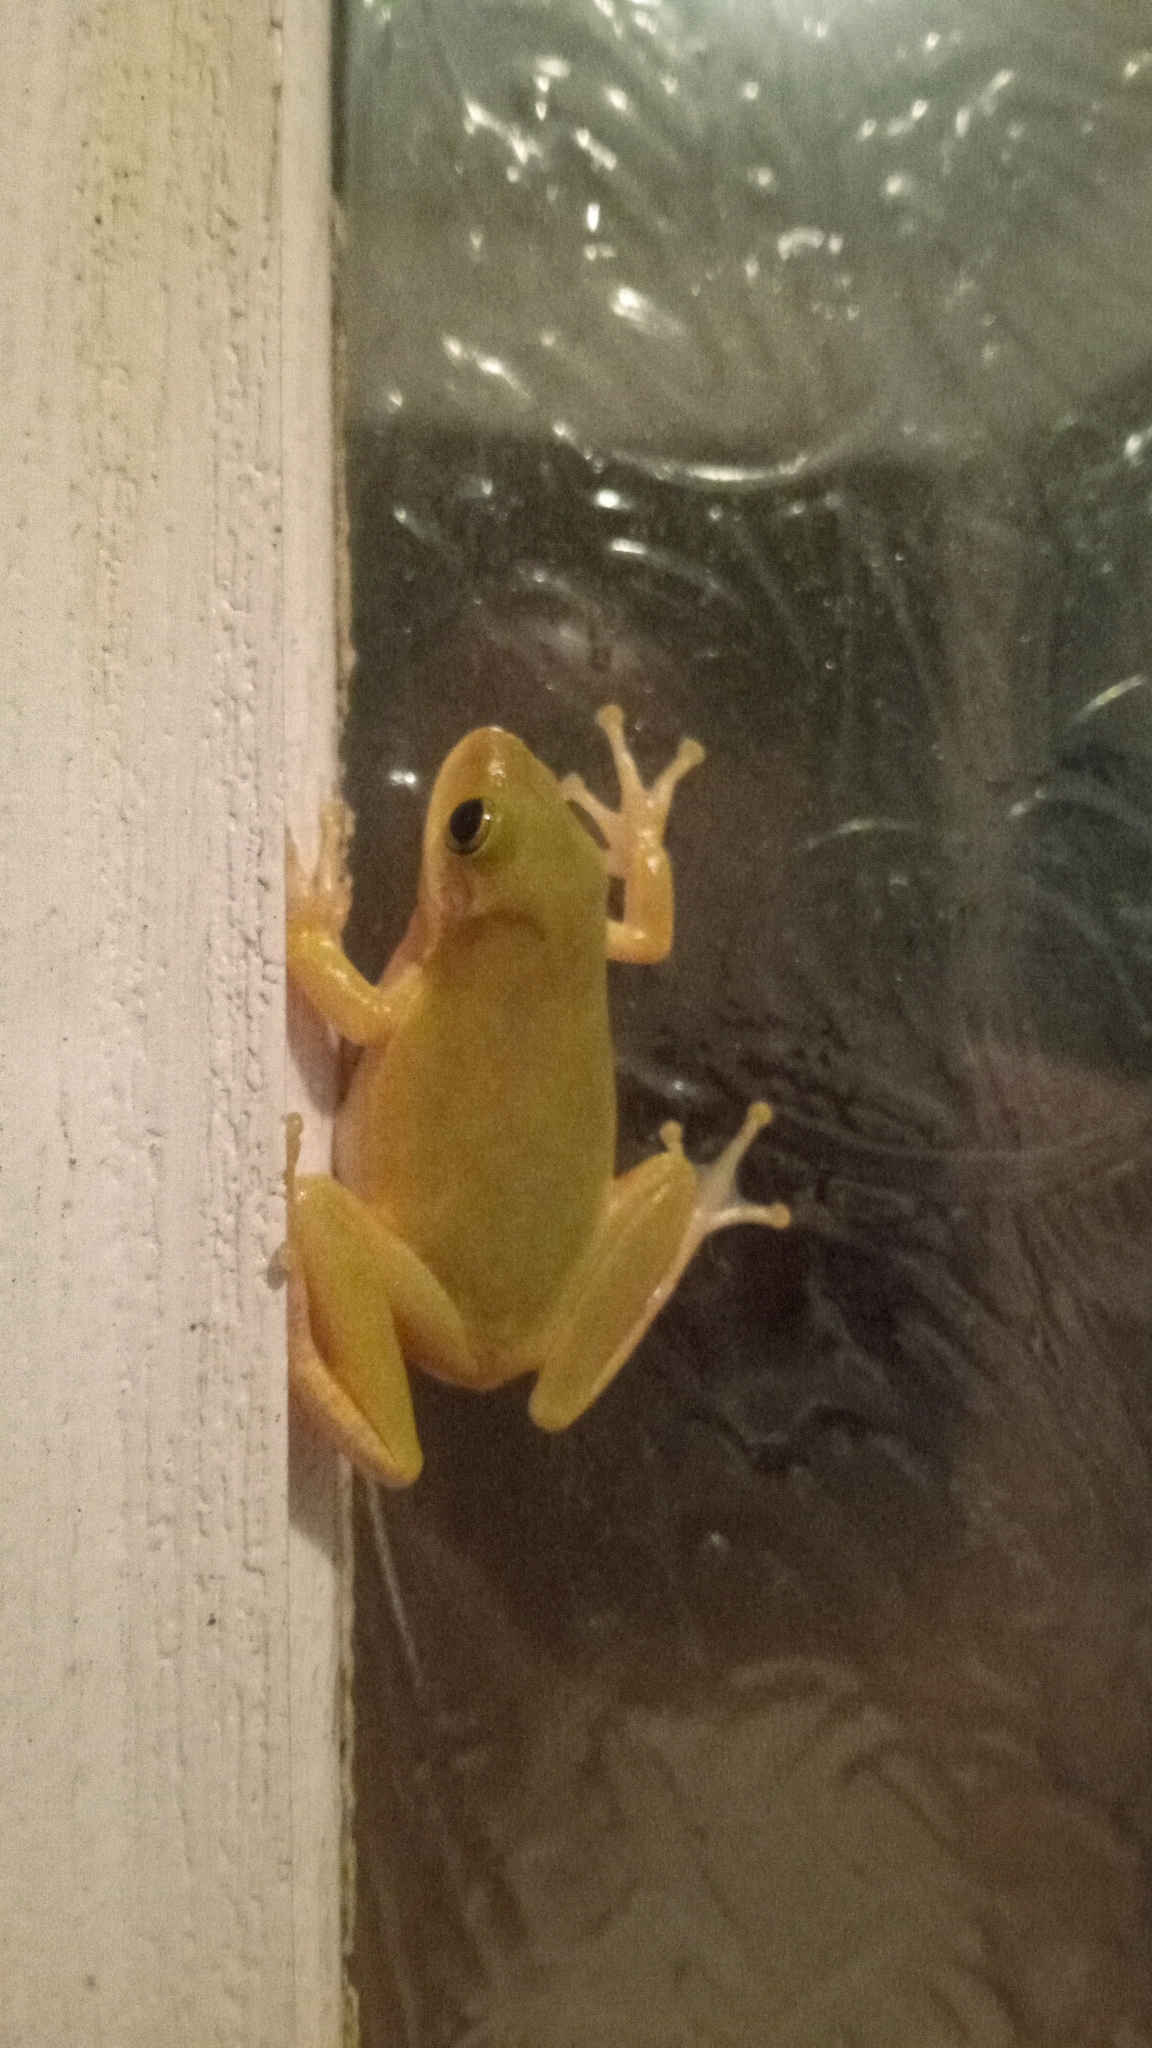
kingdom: Animalia
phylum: Chordata
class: Amphibia
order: Anura
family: Hylidae
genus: Dryophytes
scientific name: Dryophytes squirellus
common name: Squirrel treefrog
